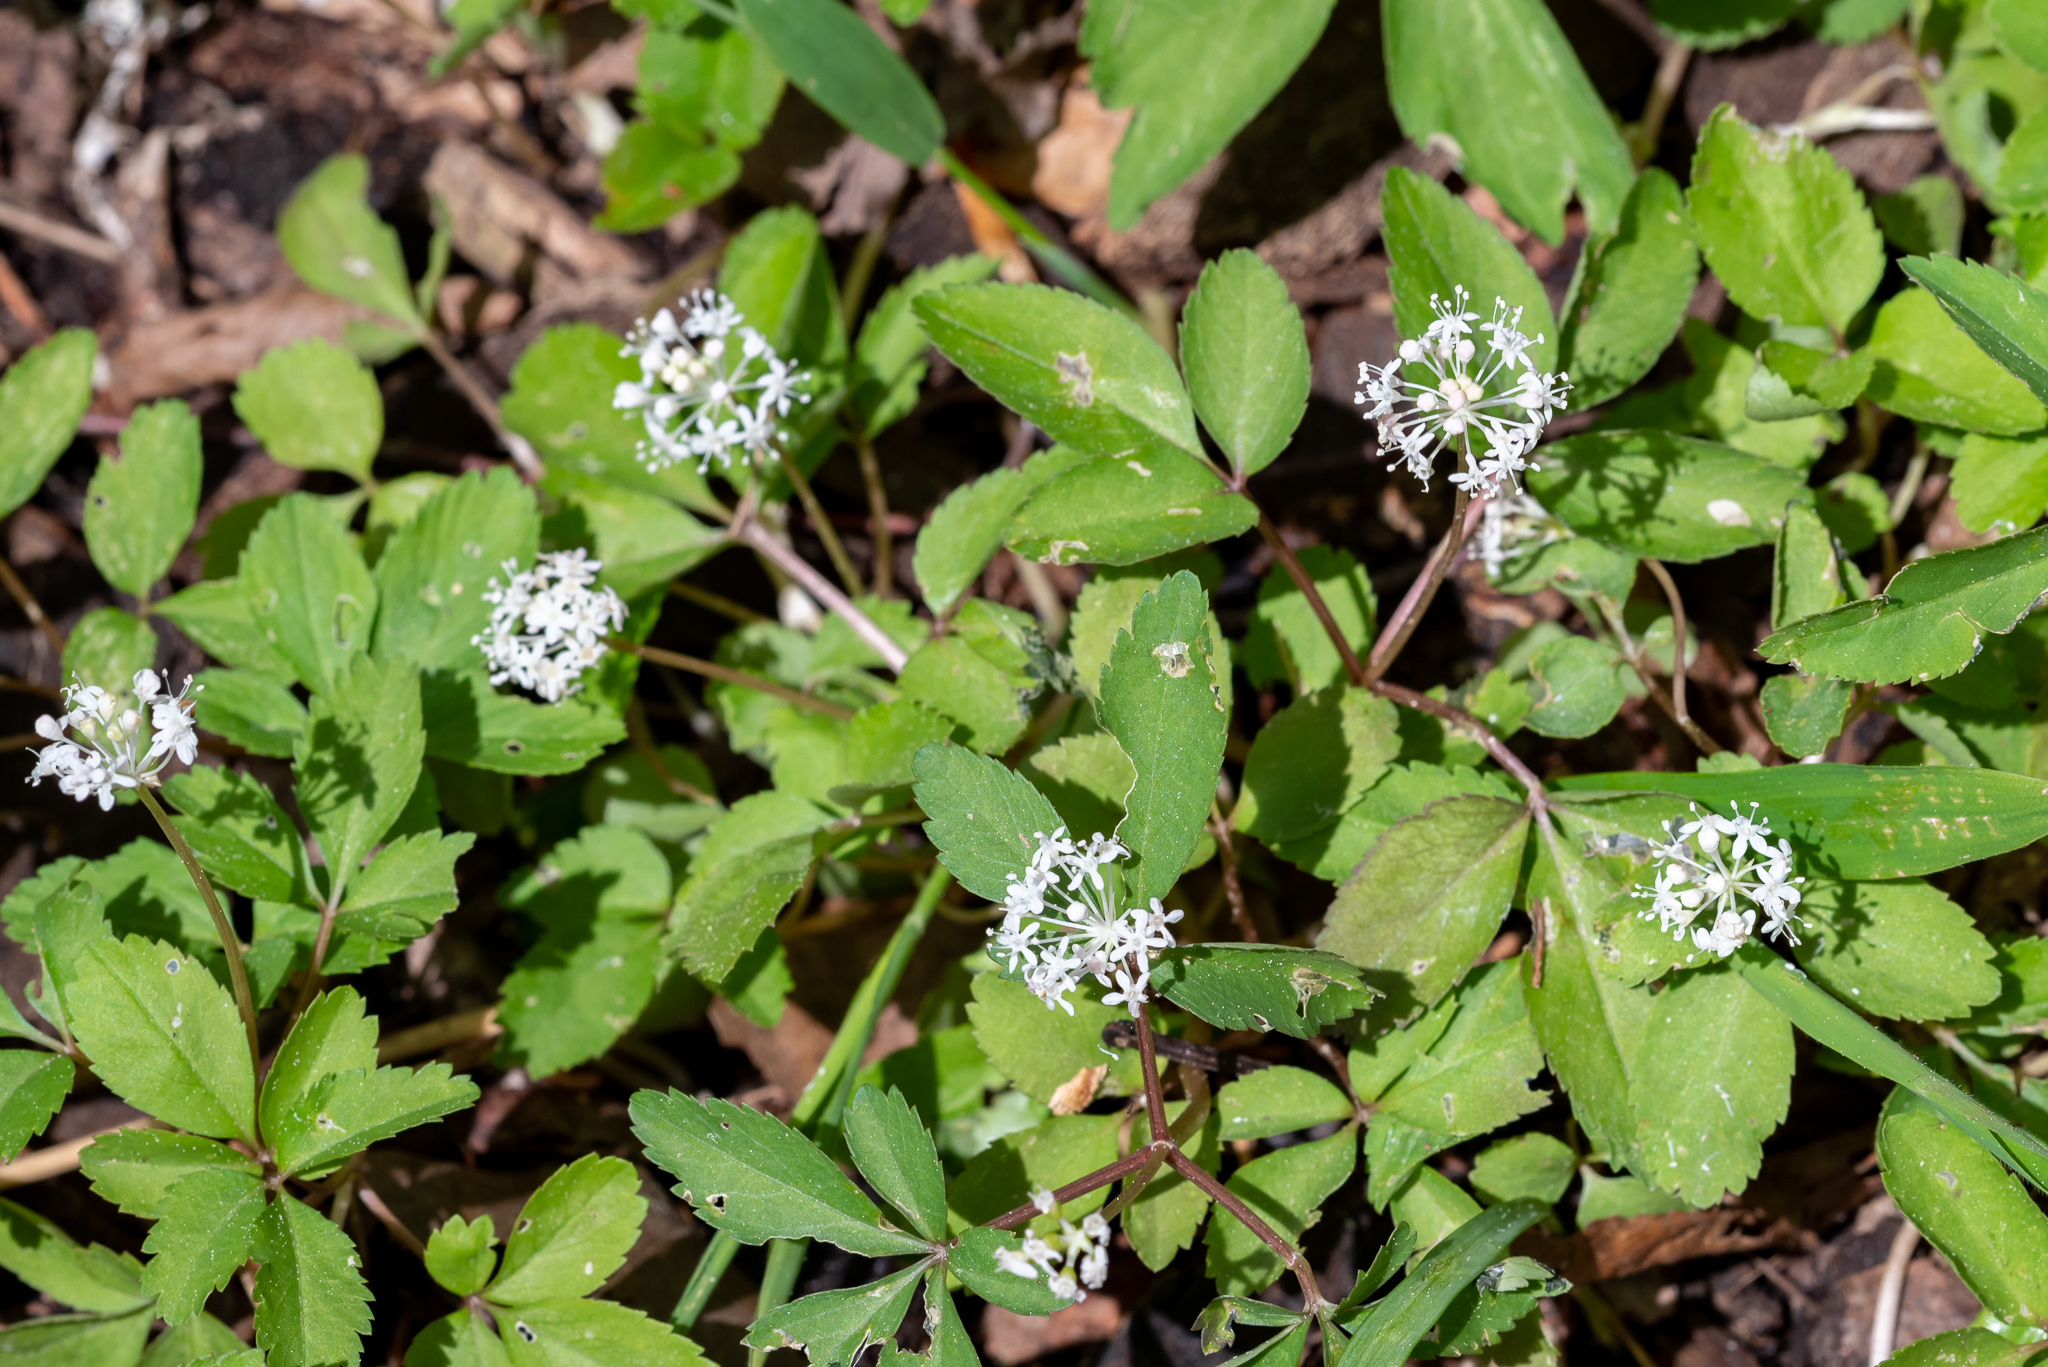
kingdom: Plantae
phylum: Tracheophyta
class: Magnoliopsida
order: Apiales
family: Araliaceae
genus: Panax
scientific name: Panax trifolius
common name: Dwarf ginseng
